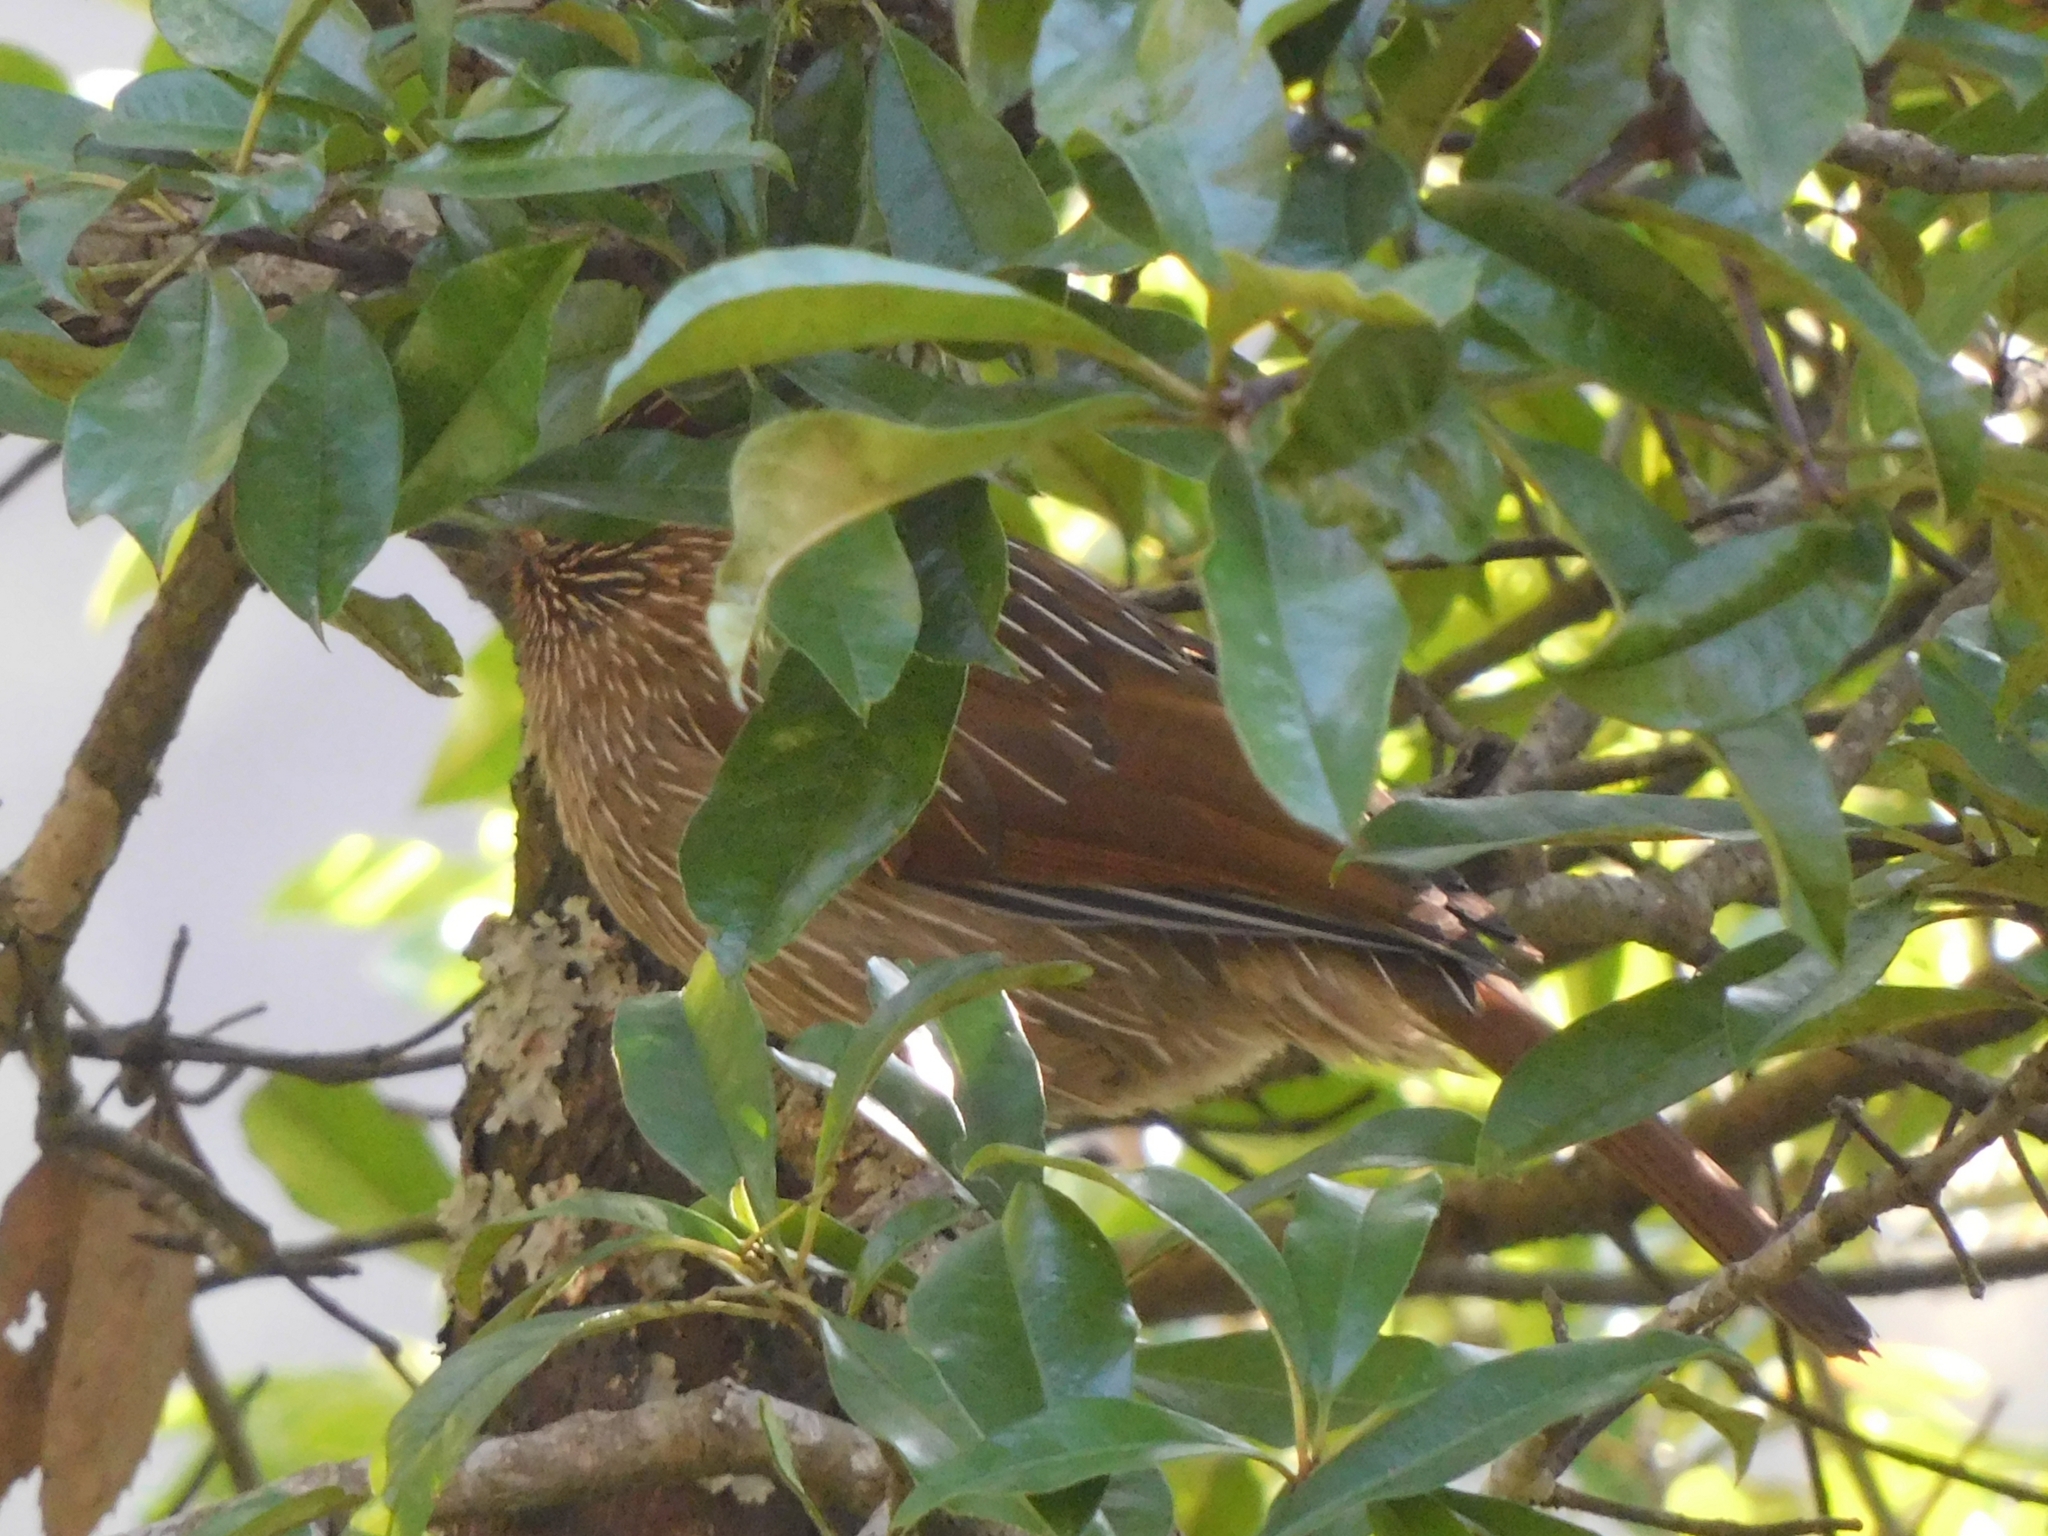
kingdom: Animalia
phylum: Chordata
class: Aves
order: Passeriformes
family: Leiothrichidae
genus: Garrulax
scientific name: Garrulax striatus
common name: Striated laughingthrush
